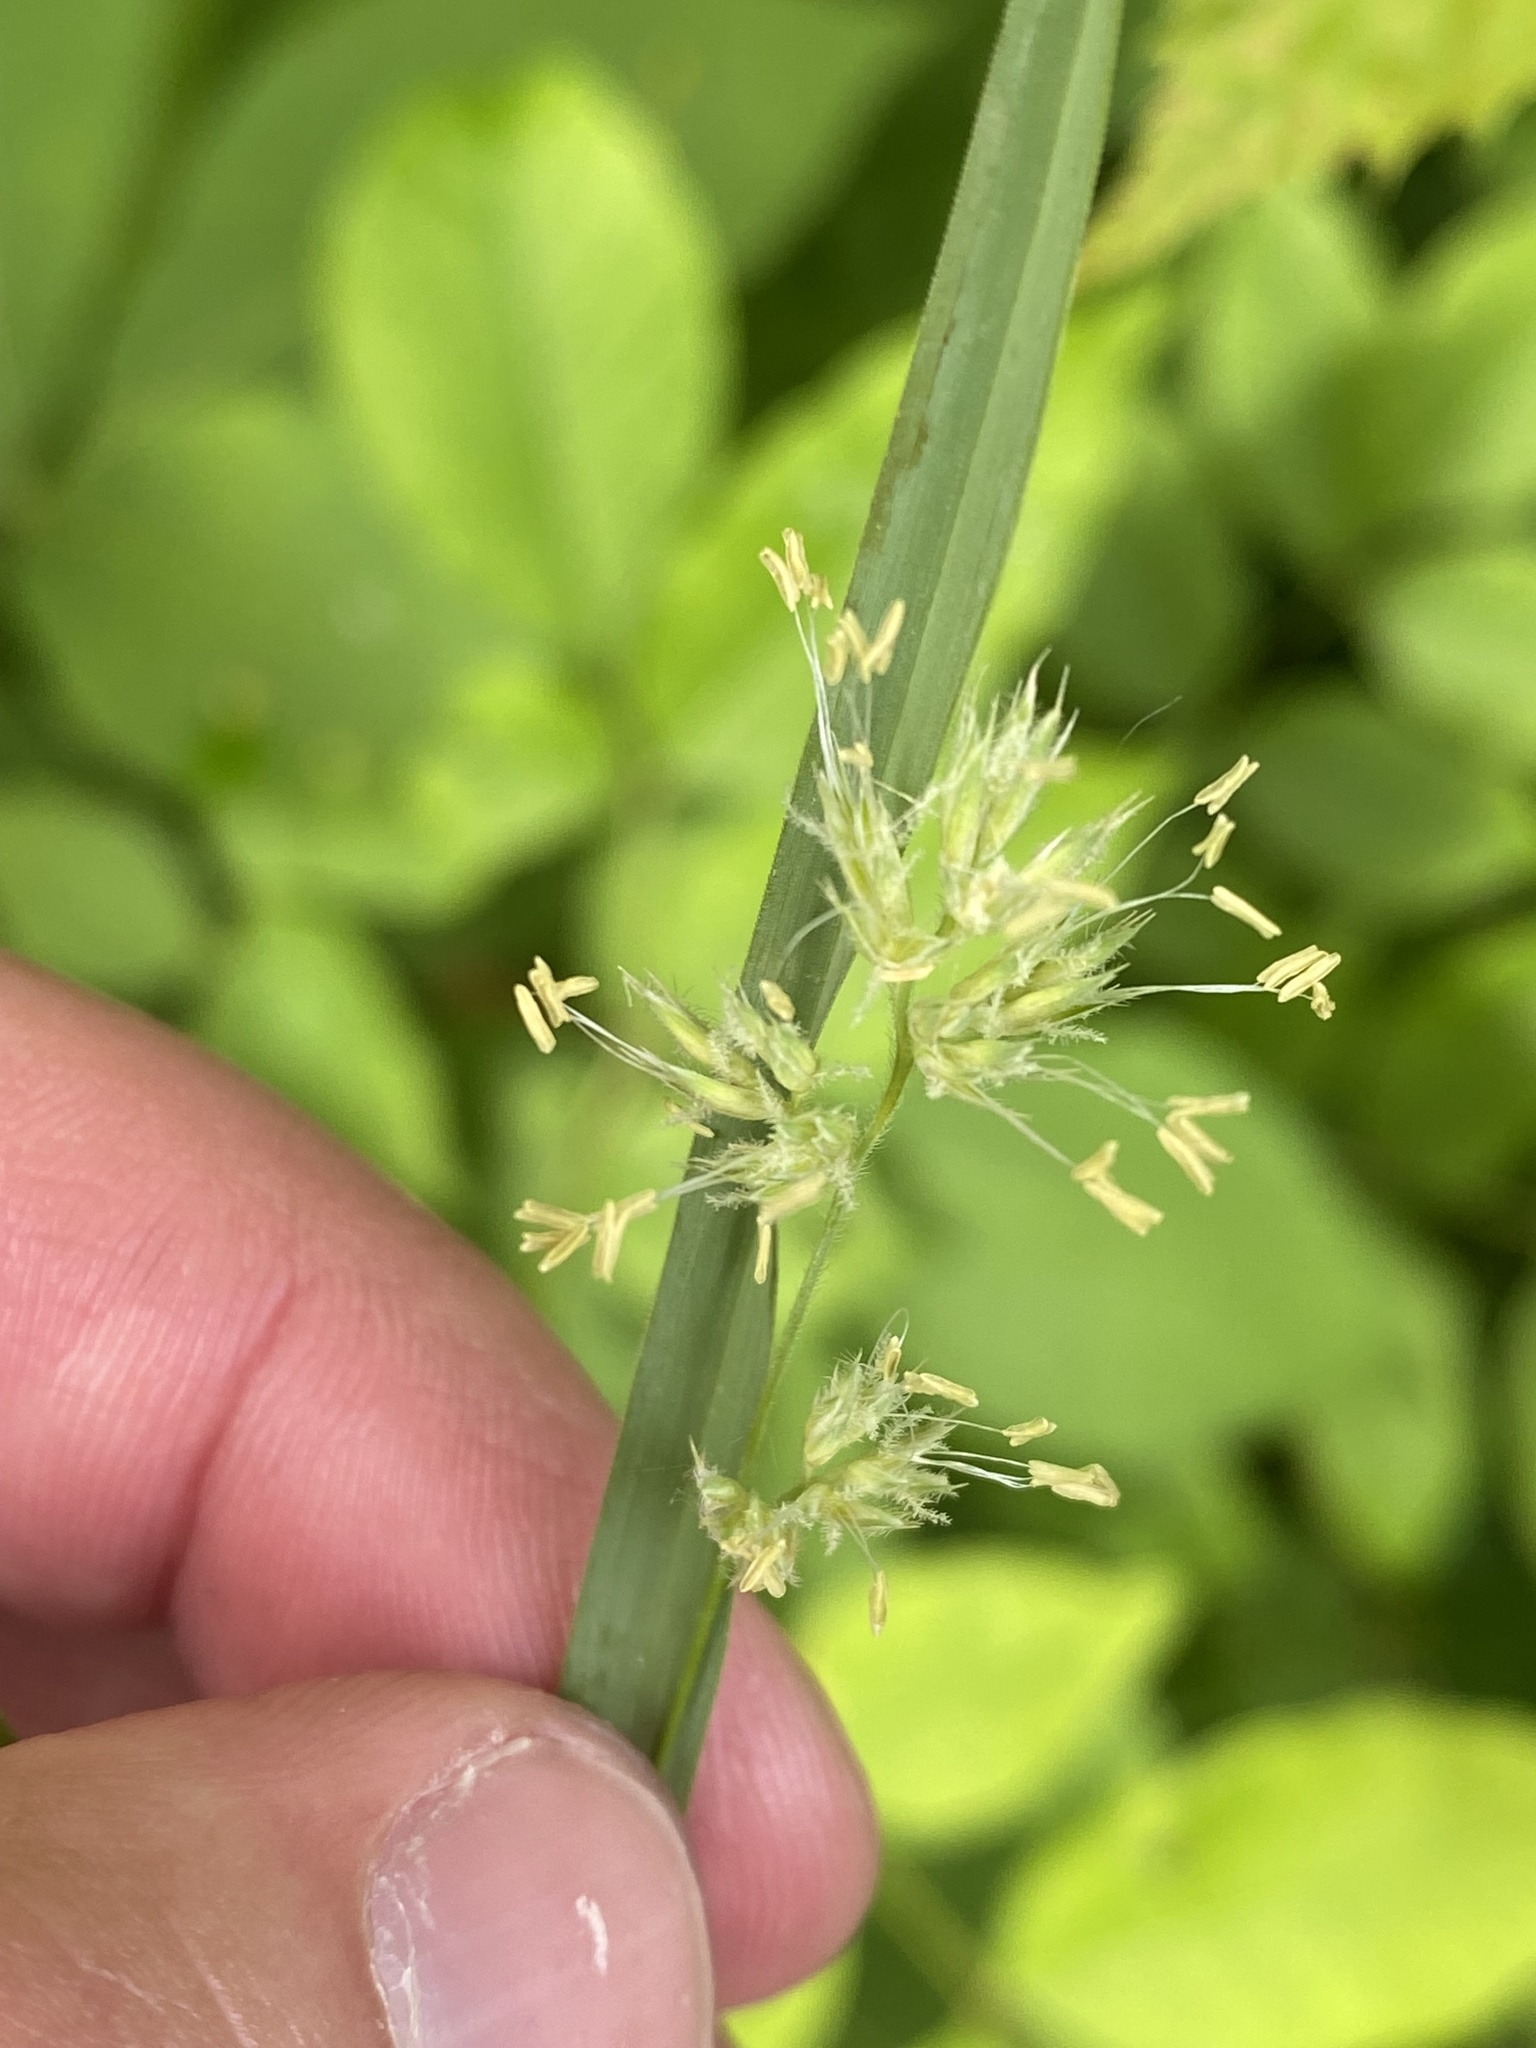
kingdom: Plantae
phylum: Tracheophyta
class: Liliopsida
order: Poales
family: Poaceae
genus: Dactylis
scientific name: Dactylis glomerata
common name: Orchardgrass
